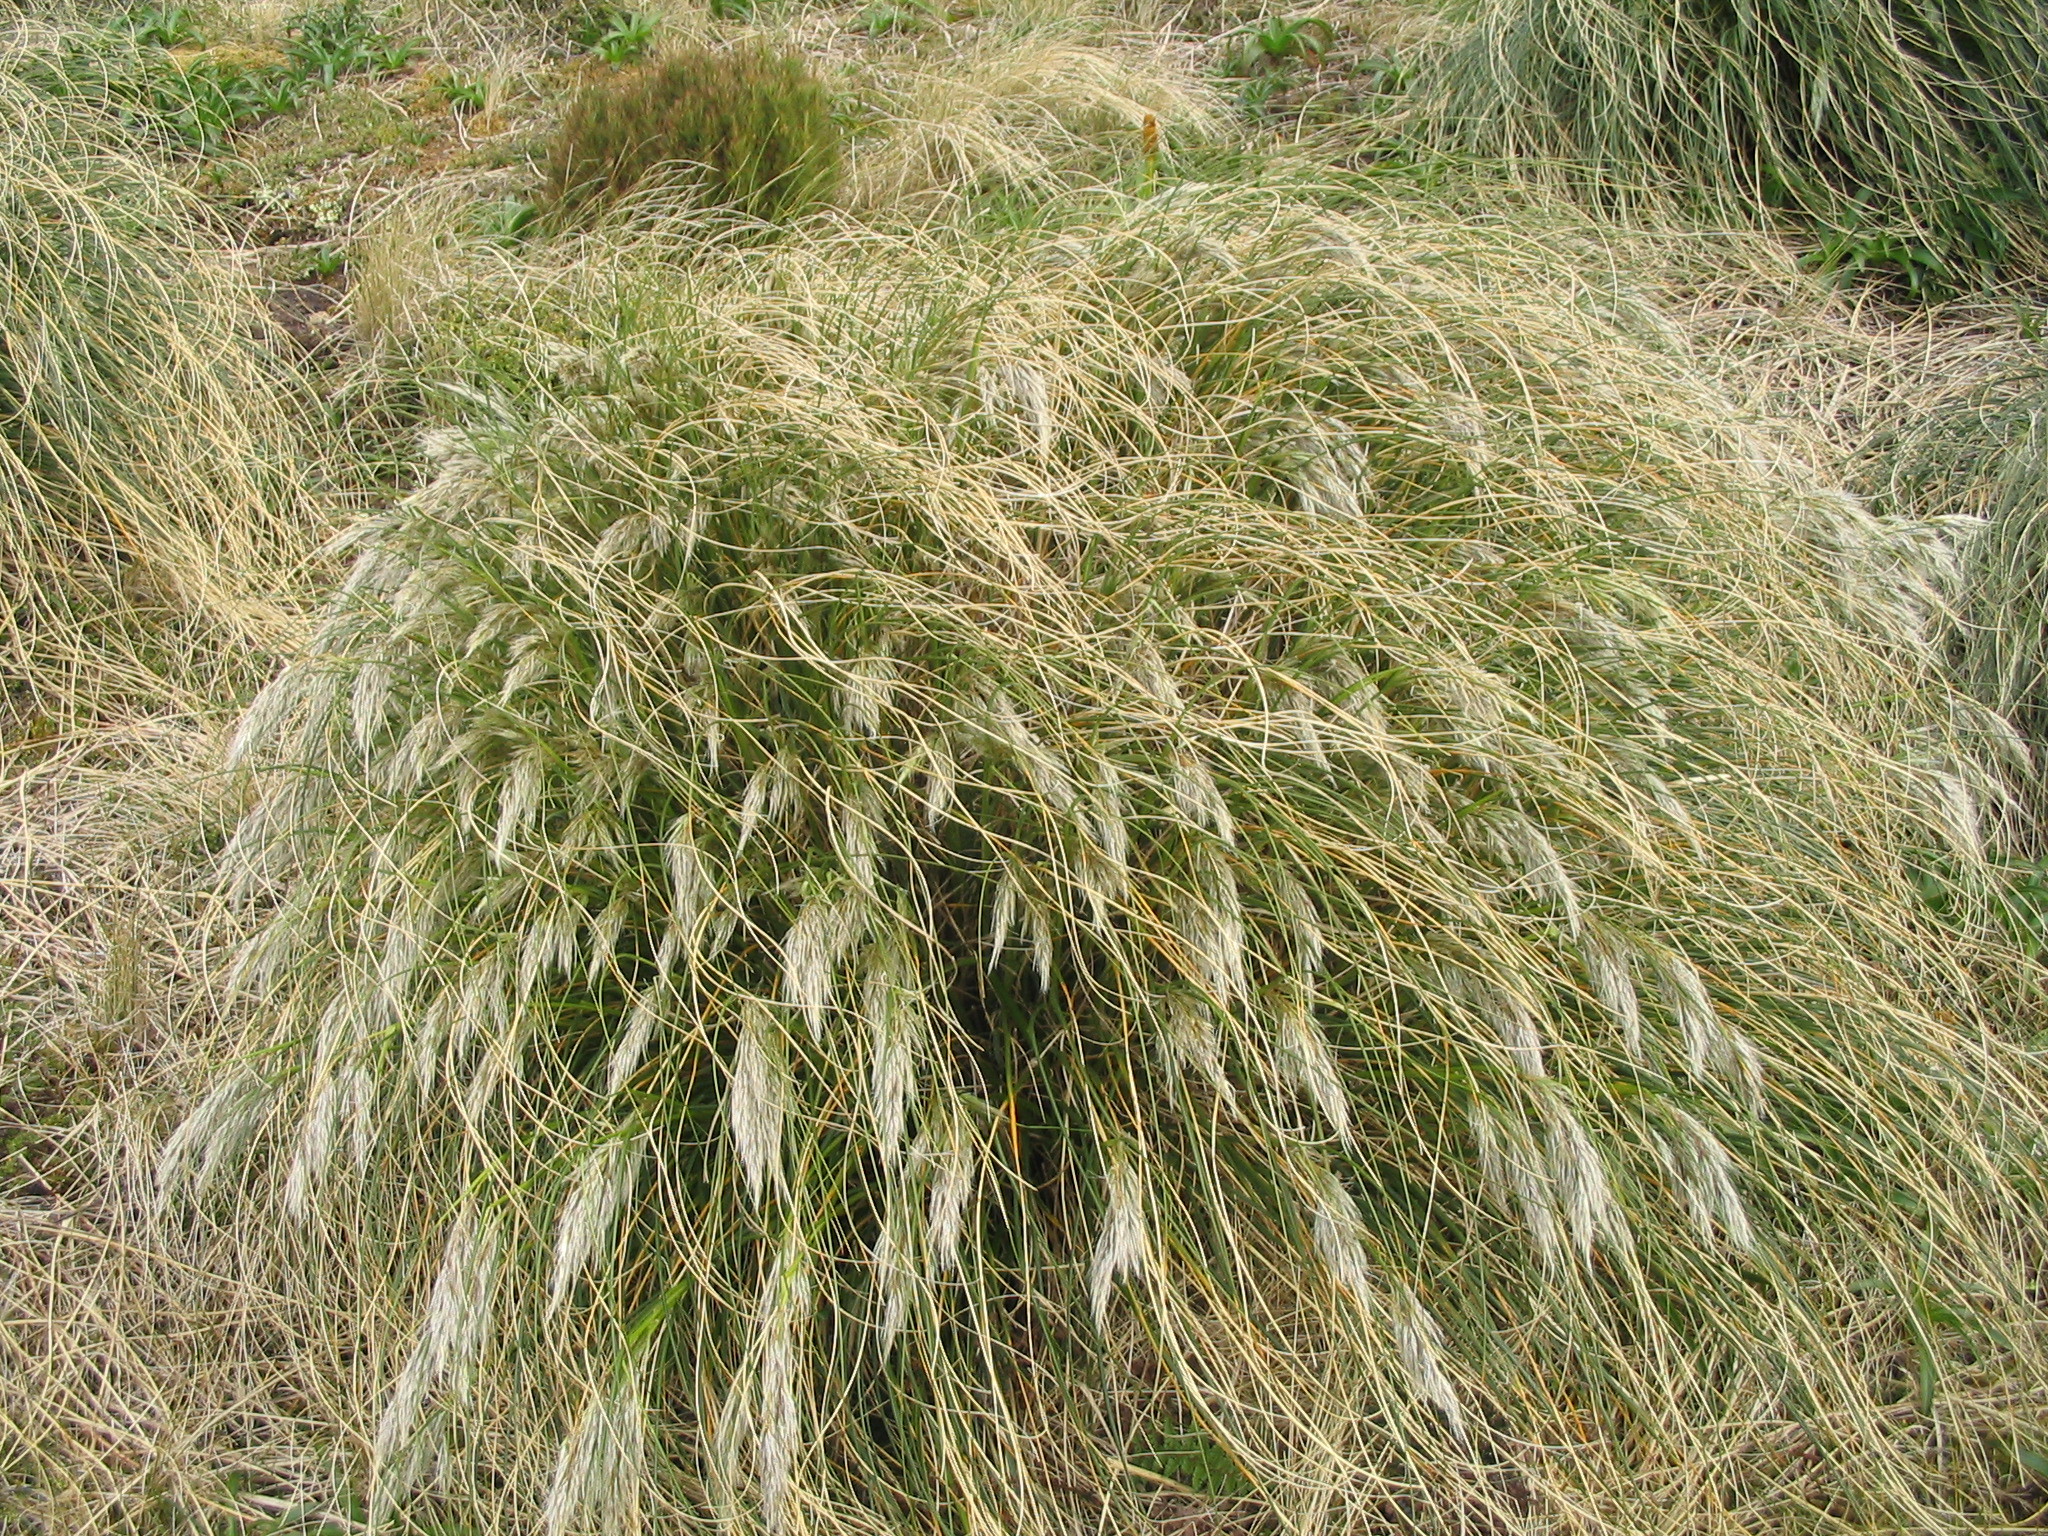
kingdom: Plantae
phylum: Tracheophyta
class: Liliopsida
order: Poales
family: Poaceae
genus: Chionochloa
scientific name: Chionochloa antarctica
